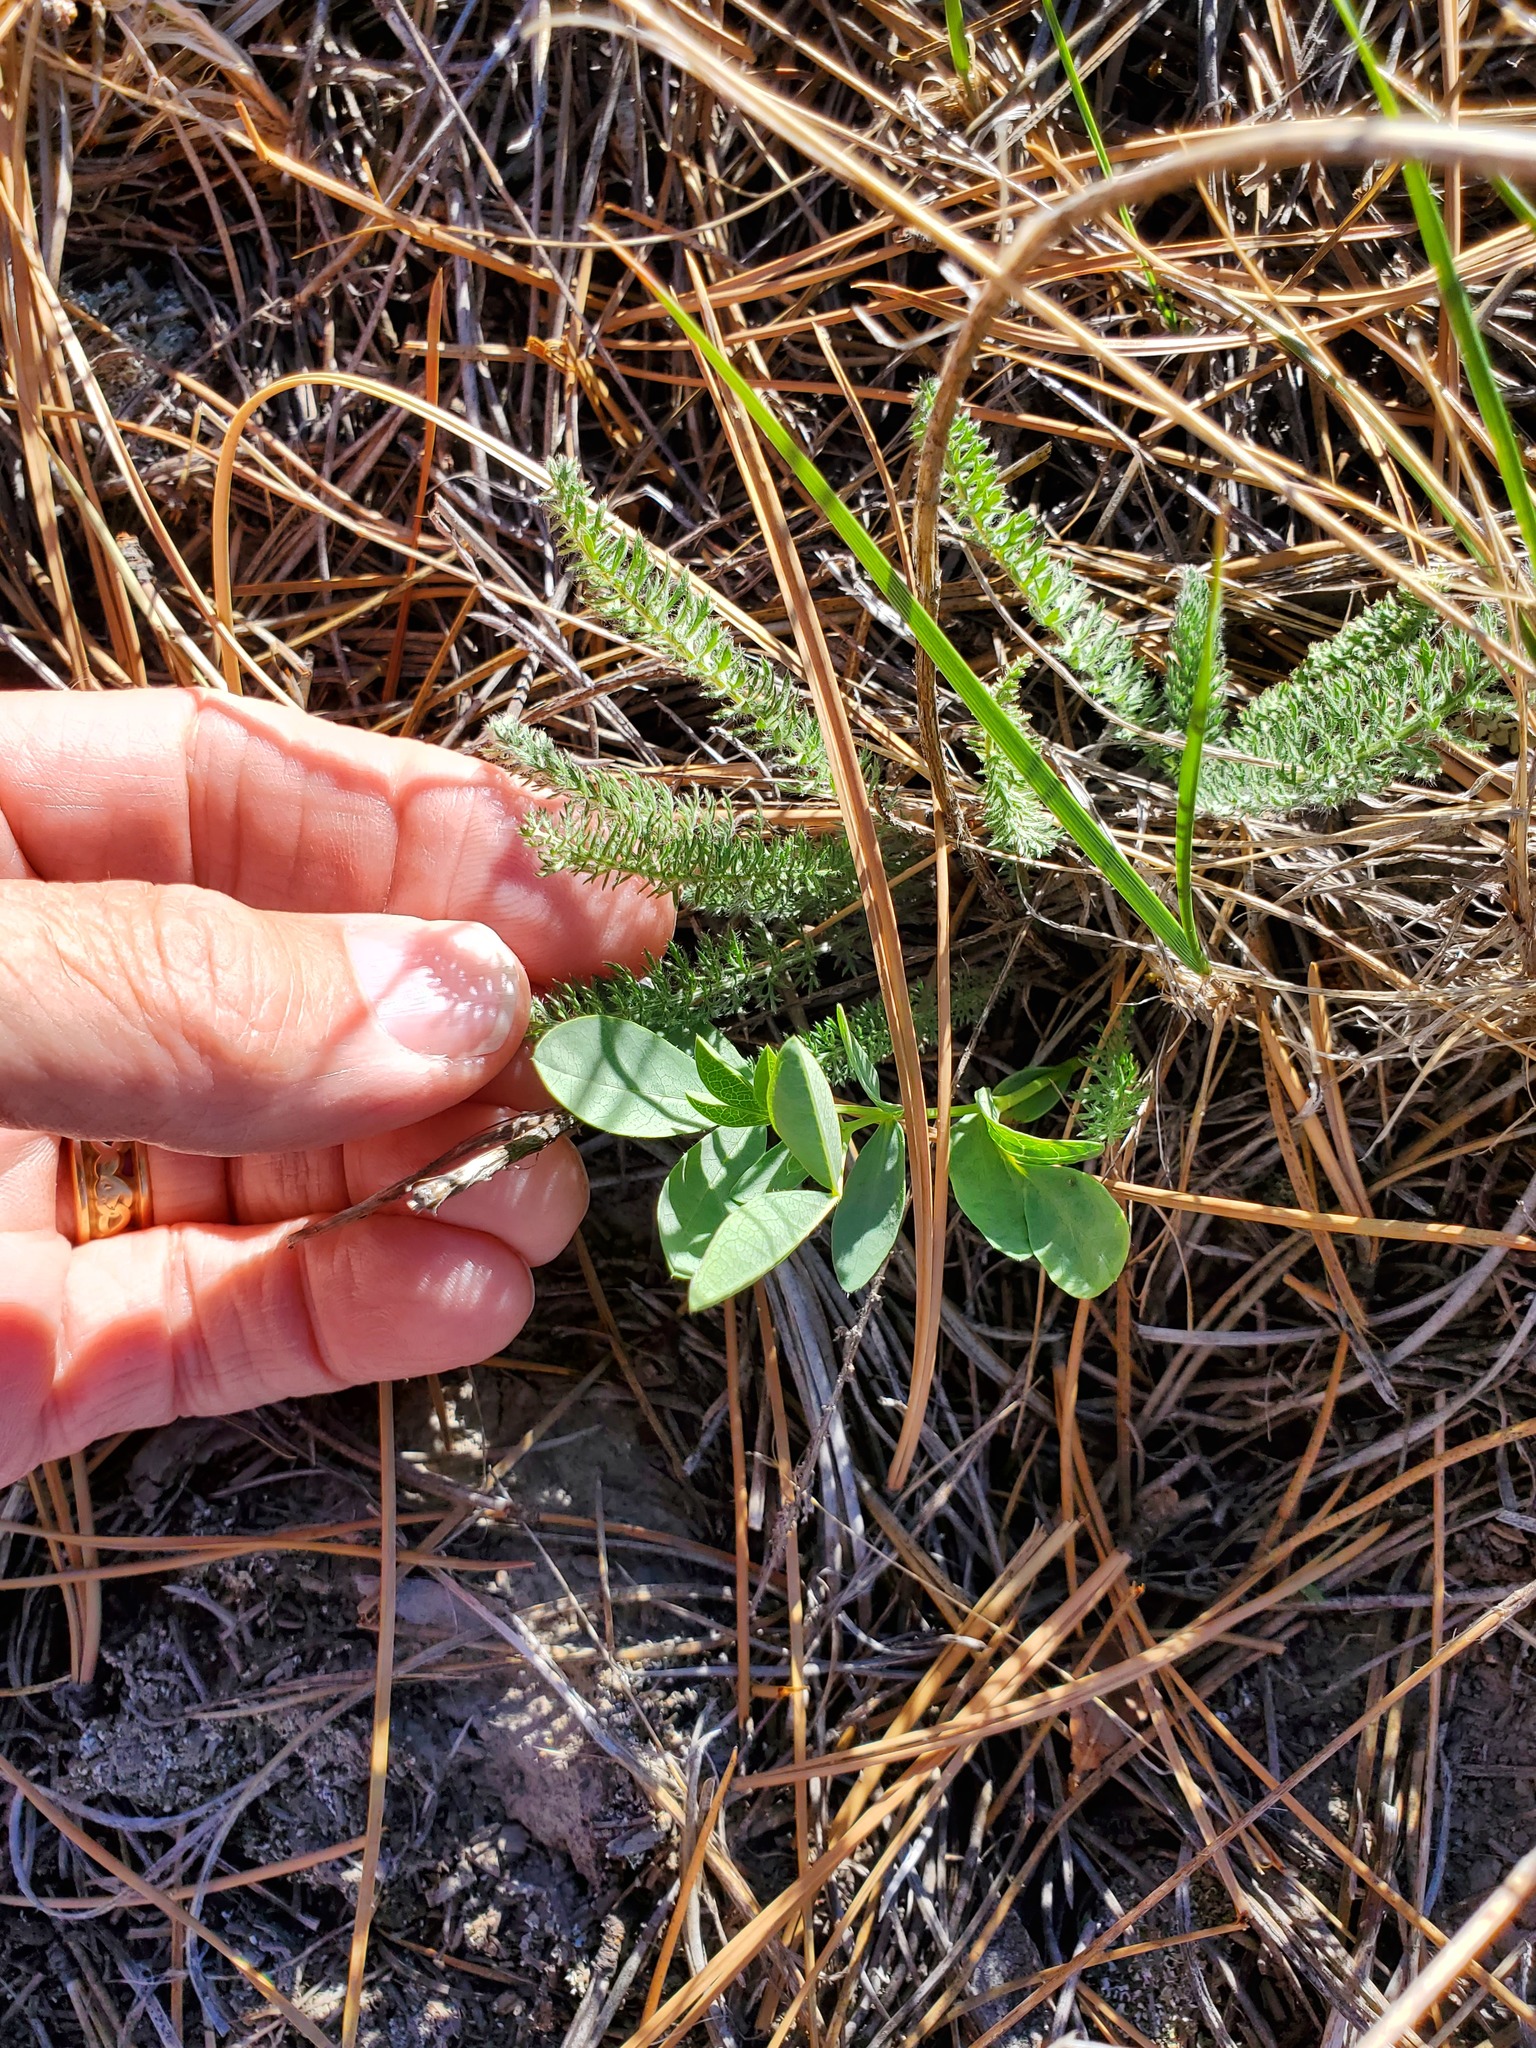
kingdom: Plantae
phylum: Tracheophyta
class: Magnoliopsida
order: Asterales
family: Asteraceae
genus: Achillea
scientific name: Achillea millefolium
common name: Yarrow
